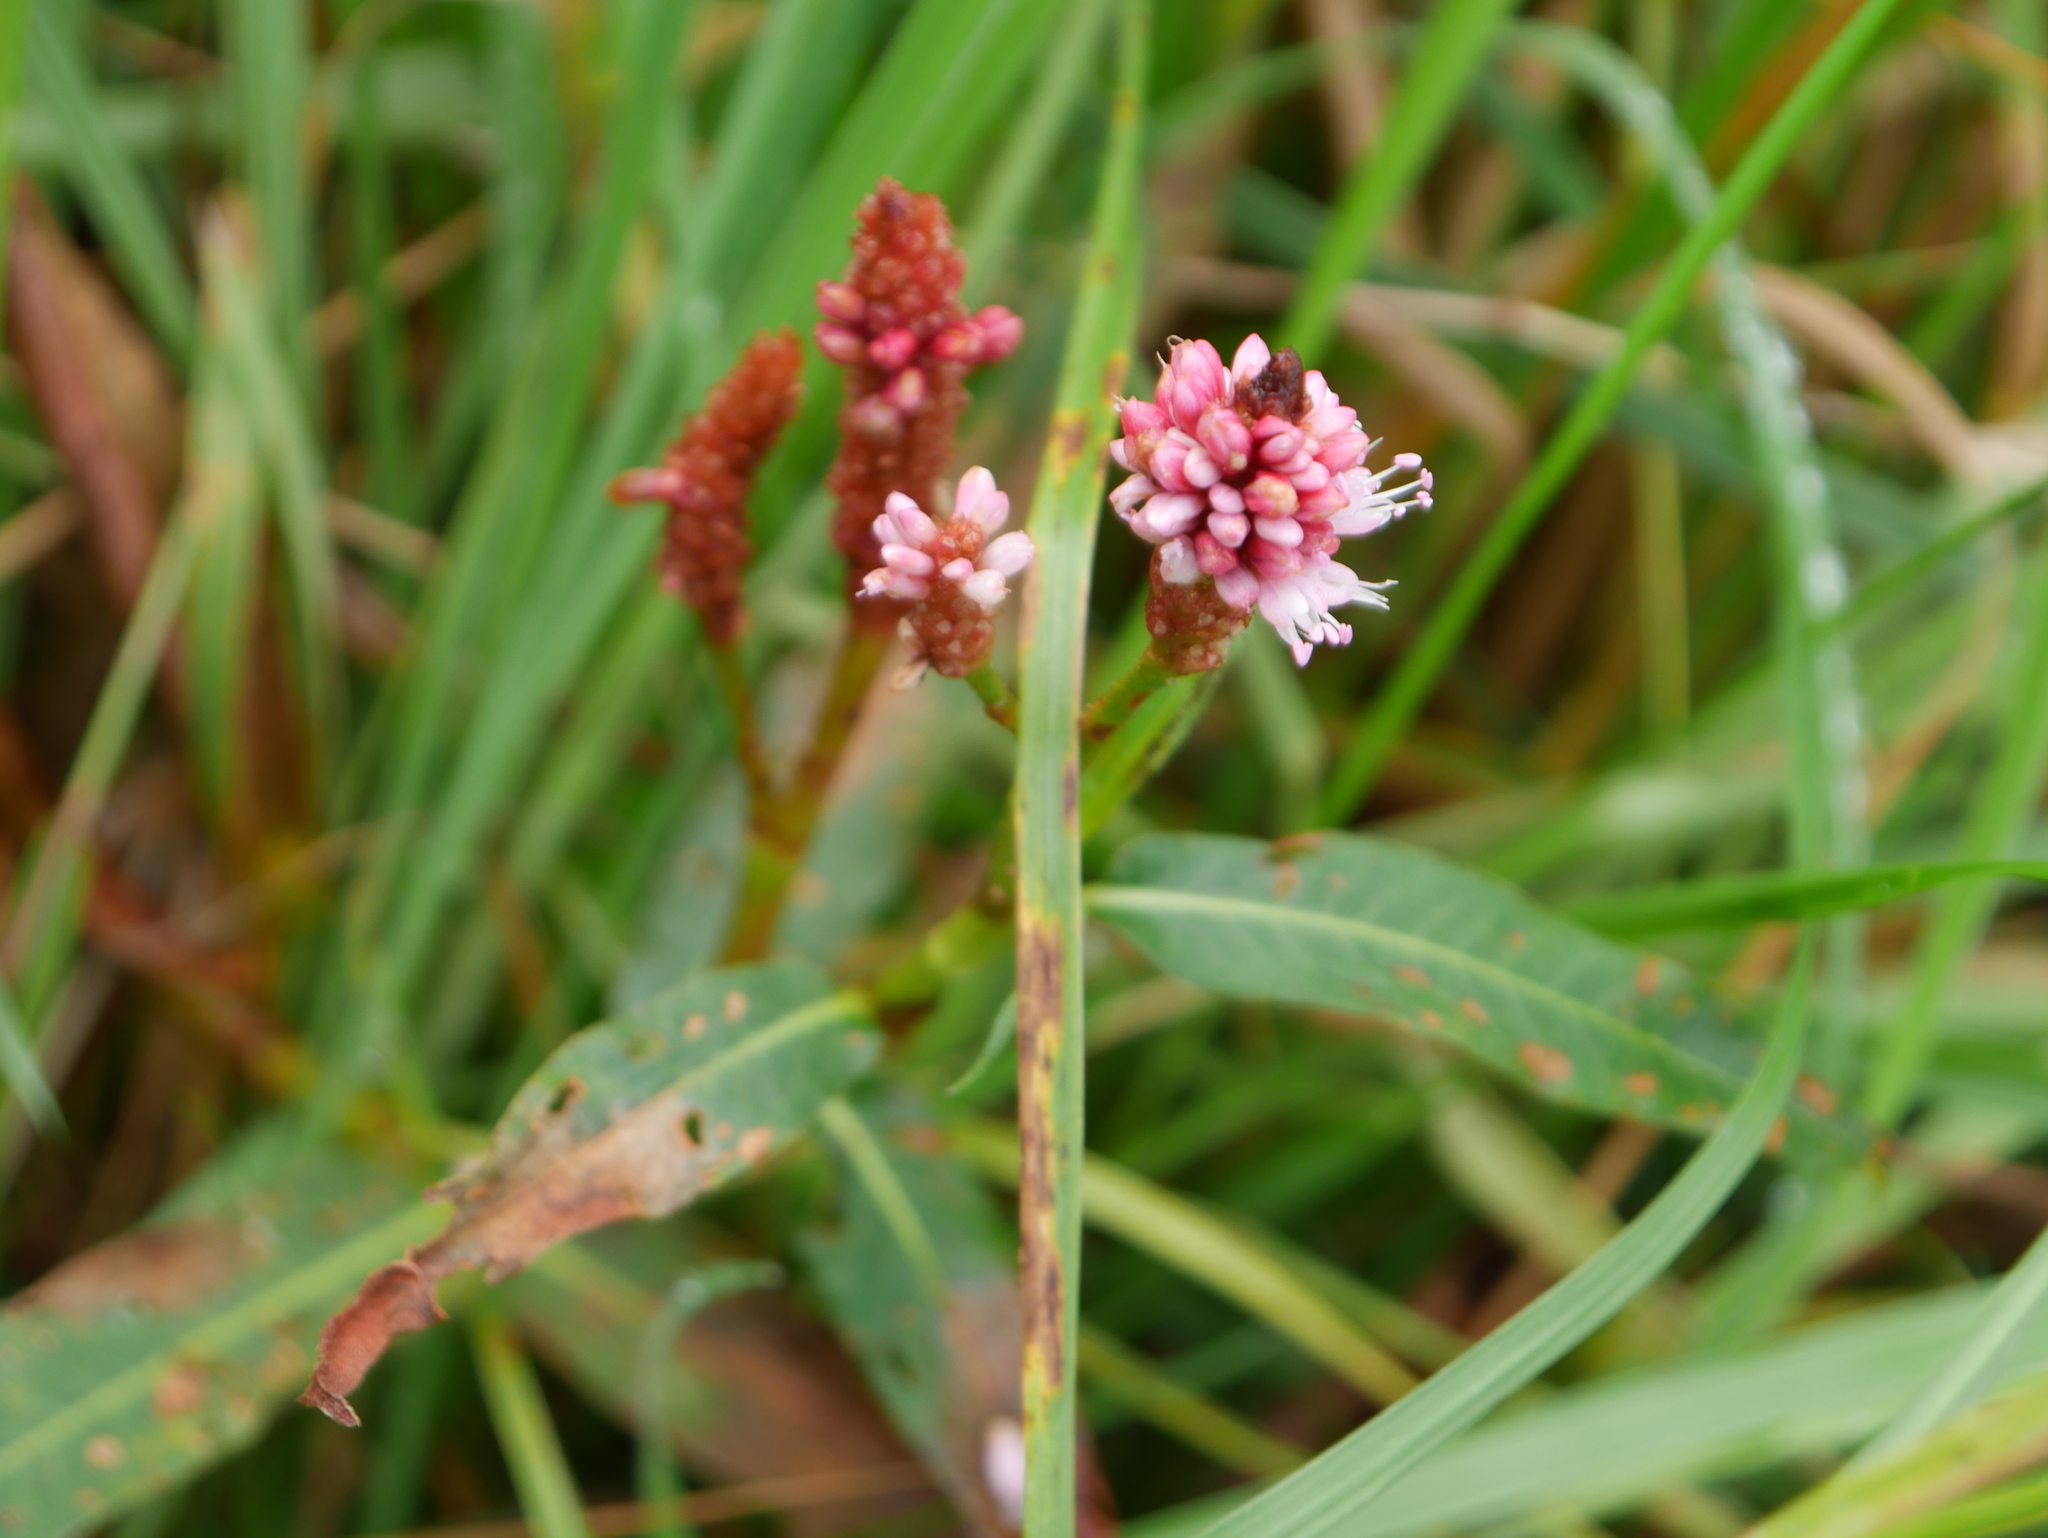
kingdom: Plantae
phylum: Tracheophyta
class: Magnoliopsida
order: Caryophyllales
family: Polygonaceae
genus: Persicaria
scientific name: Persicaria amphibia
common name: Amphibious bistort
